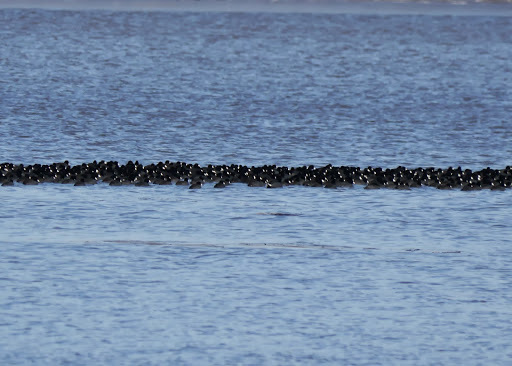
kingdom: Animalia
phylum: Chordata
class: Aves
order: Gruiformes
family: Rallidae
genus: Fulica
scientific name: Fulica americana
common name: American coot
